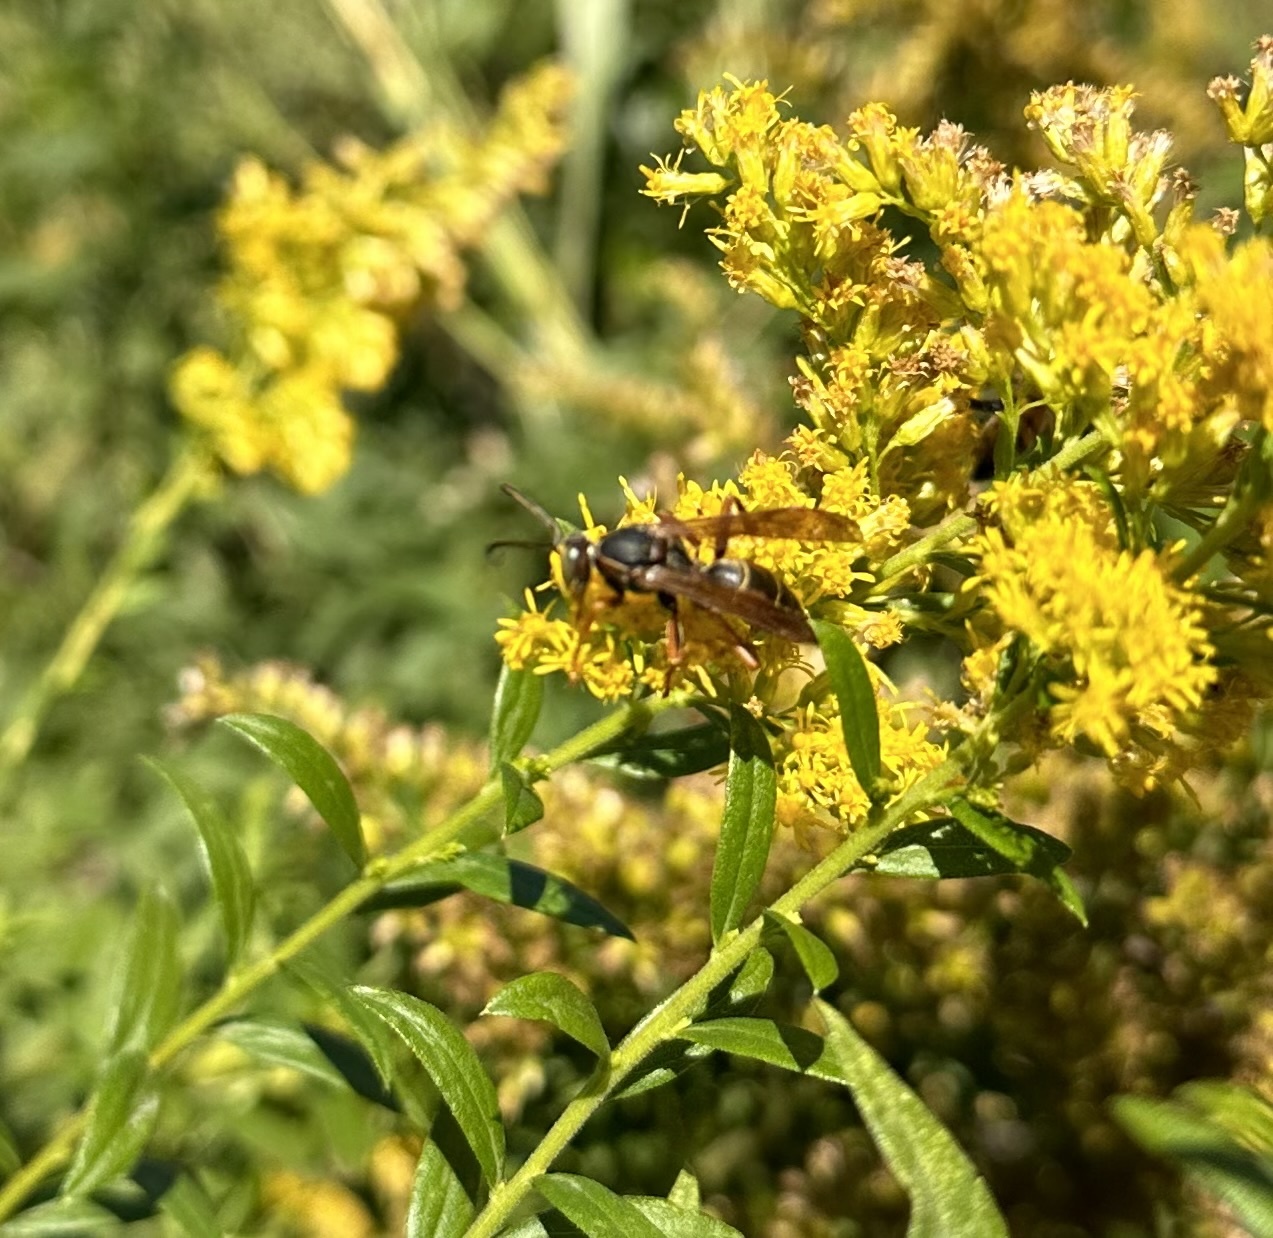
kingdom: Animalia
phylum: Arthropoda
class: Insecta
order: Hymenoptera
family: Eumenidae
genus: Polistes
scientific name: Polistes fuscatus
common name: Dark paper wasp
